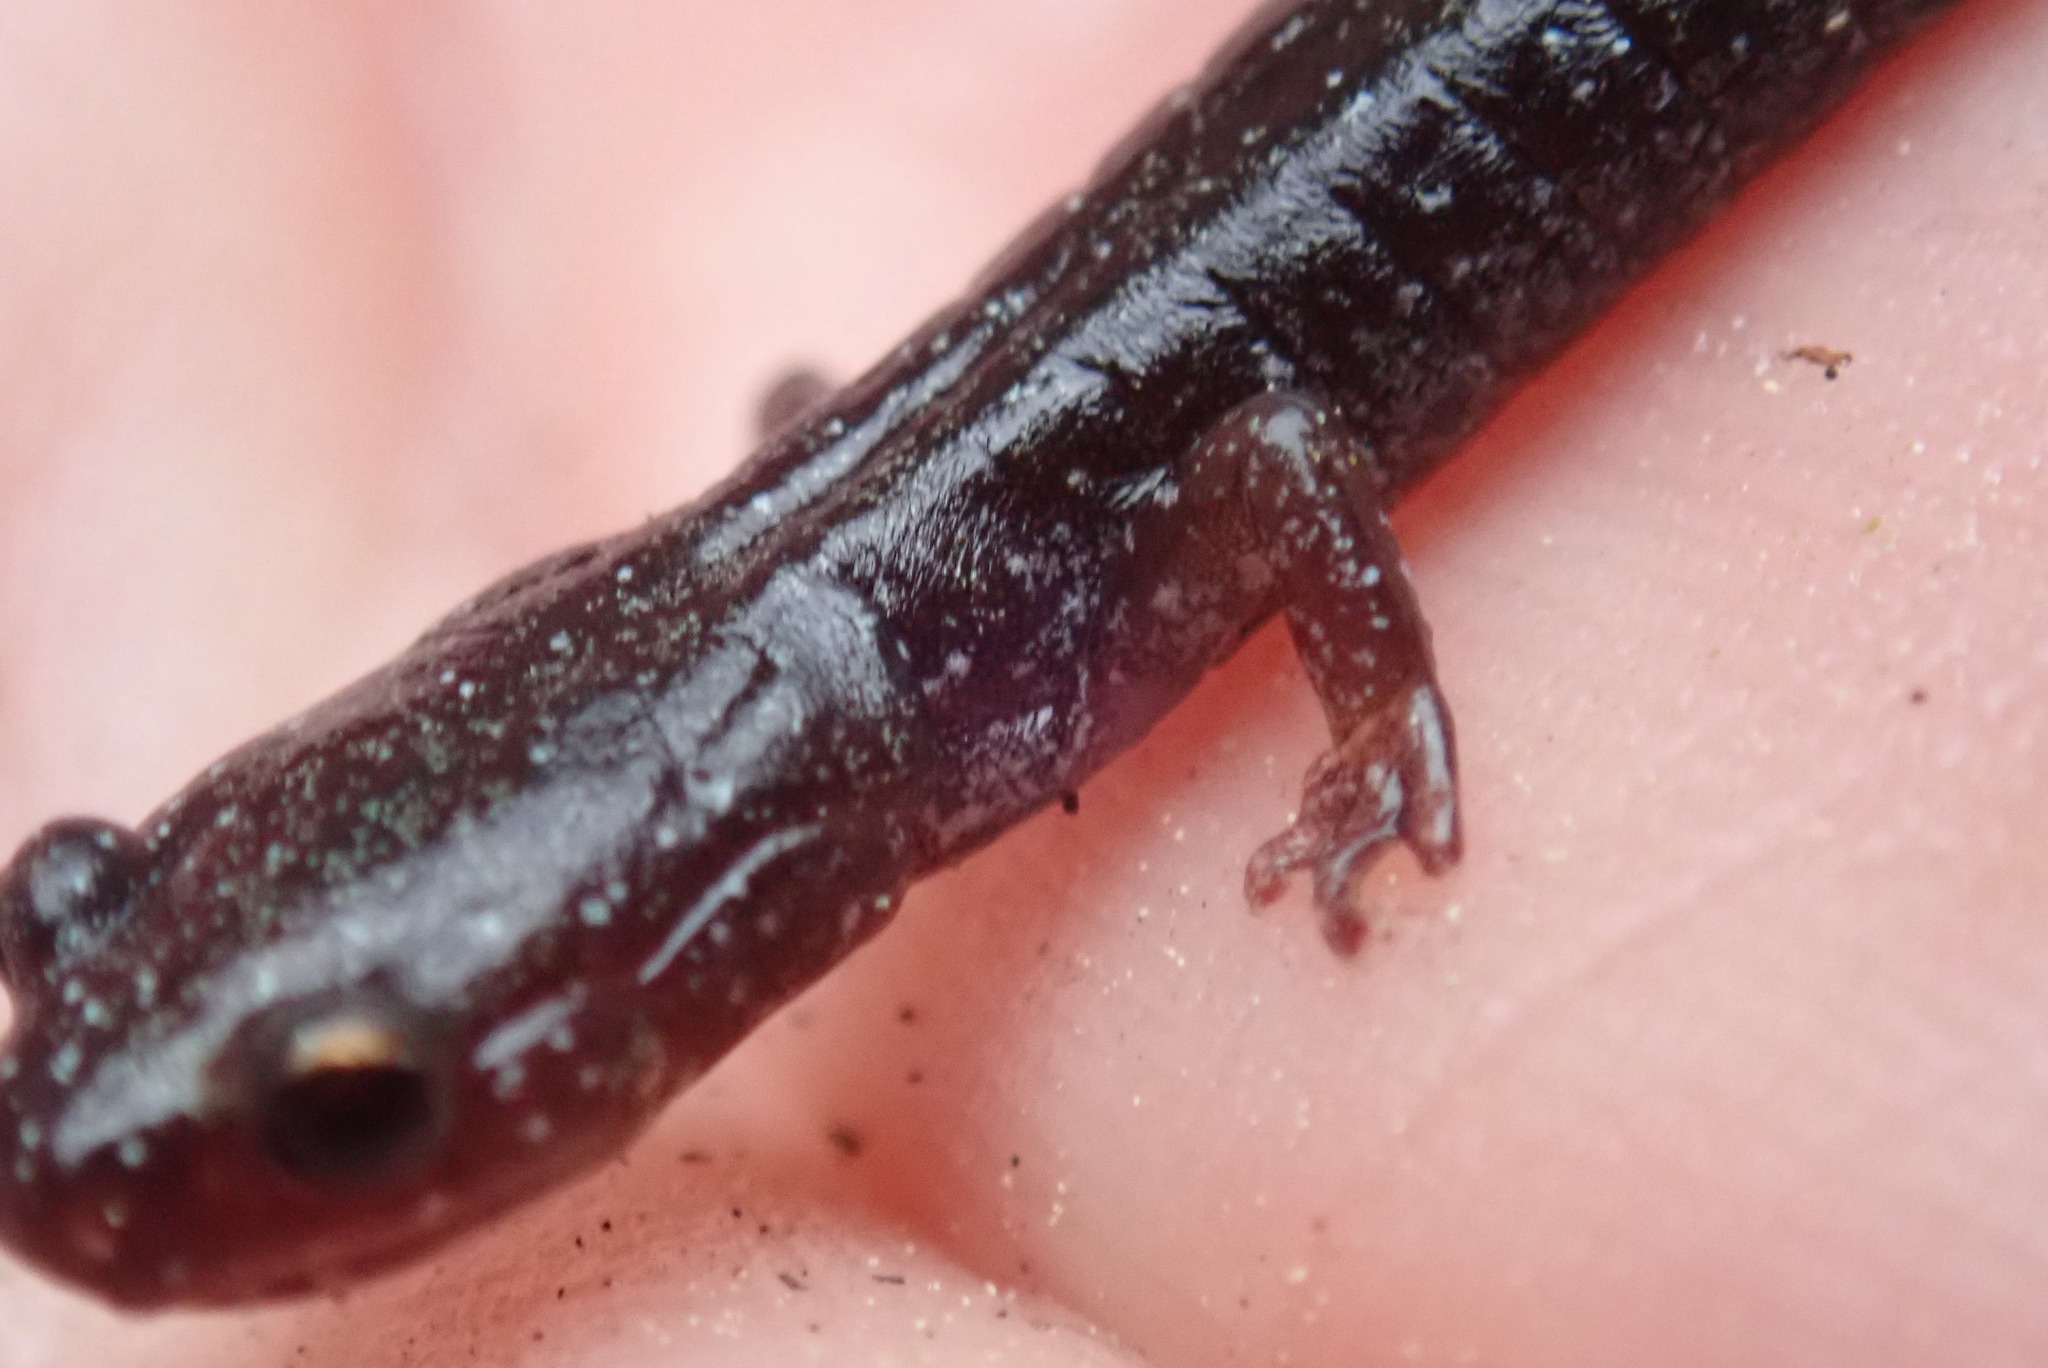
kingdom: Animalia
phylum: Chordata
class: Amphibia
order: Caudata
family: Plethodontidae
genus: Plethodon
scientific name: Plethodon cinereus
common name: Redback salamander
